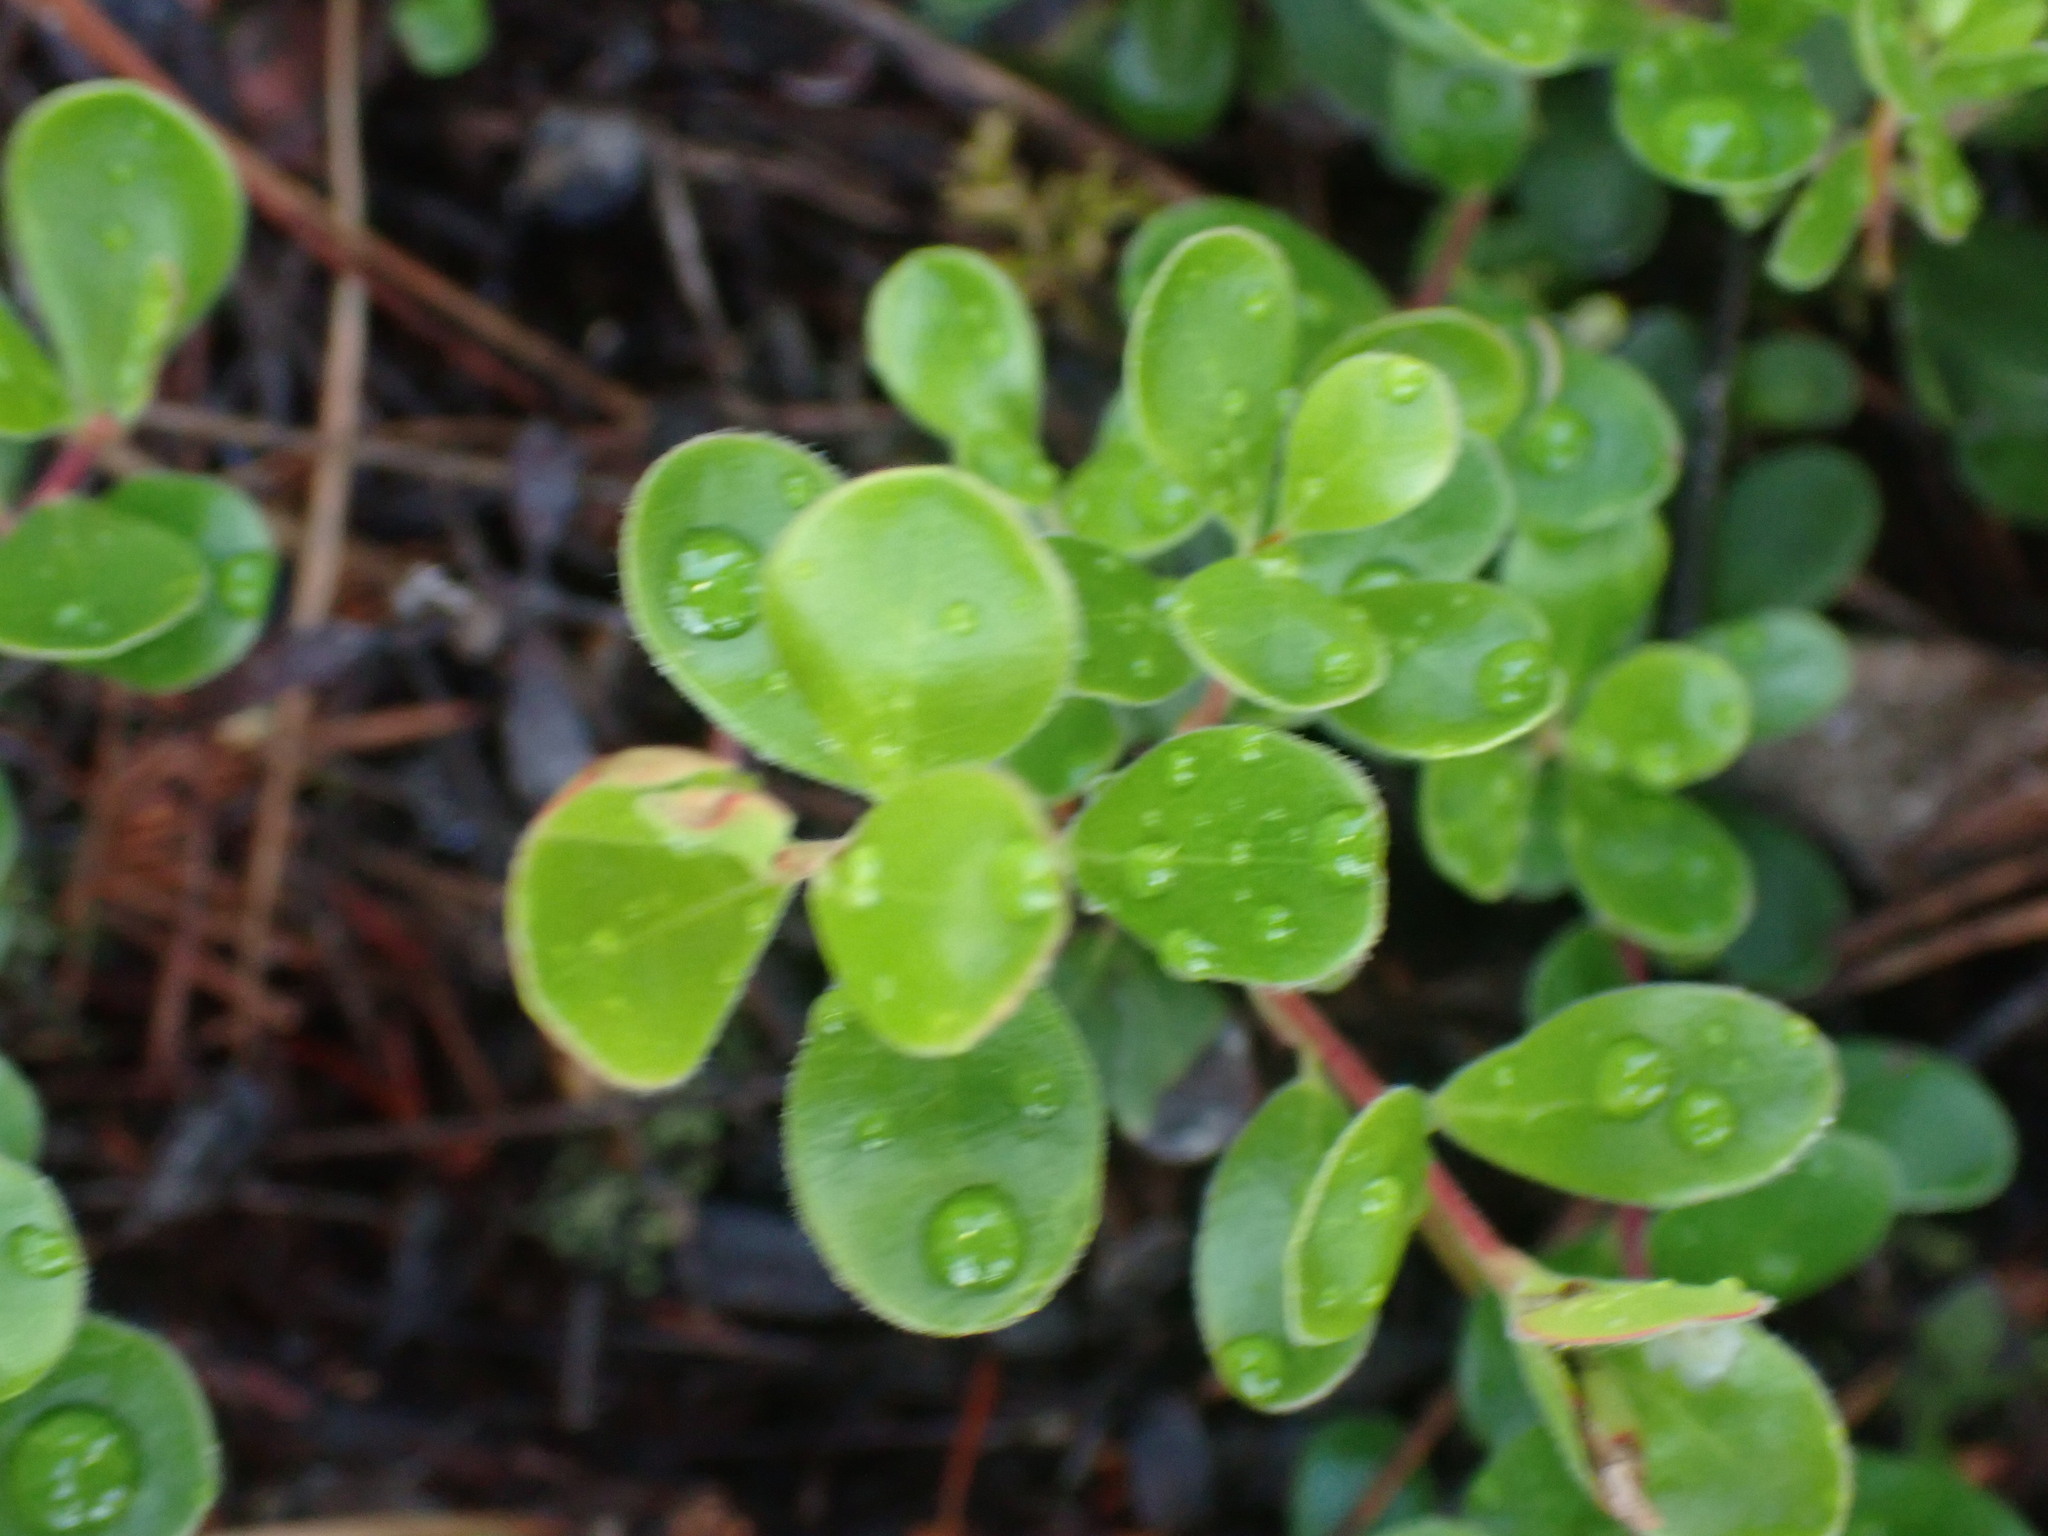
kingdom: Plantae
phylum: Tracheophyta
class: Magnoliopsida
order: Ericales
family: Ericaceae
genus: Arctostaphylos
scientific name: Arctostaphylos uva-ursi
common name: Bearberry
